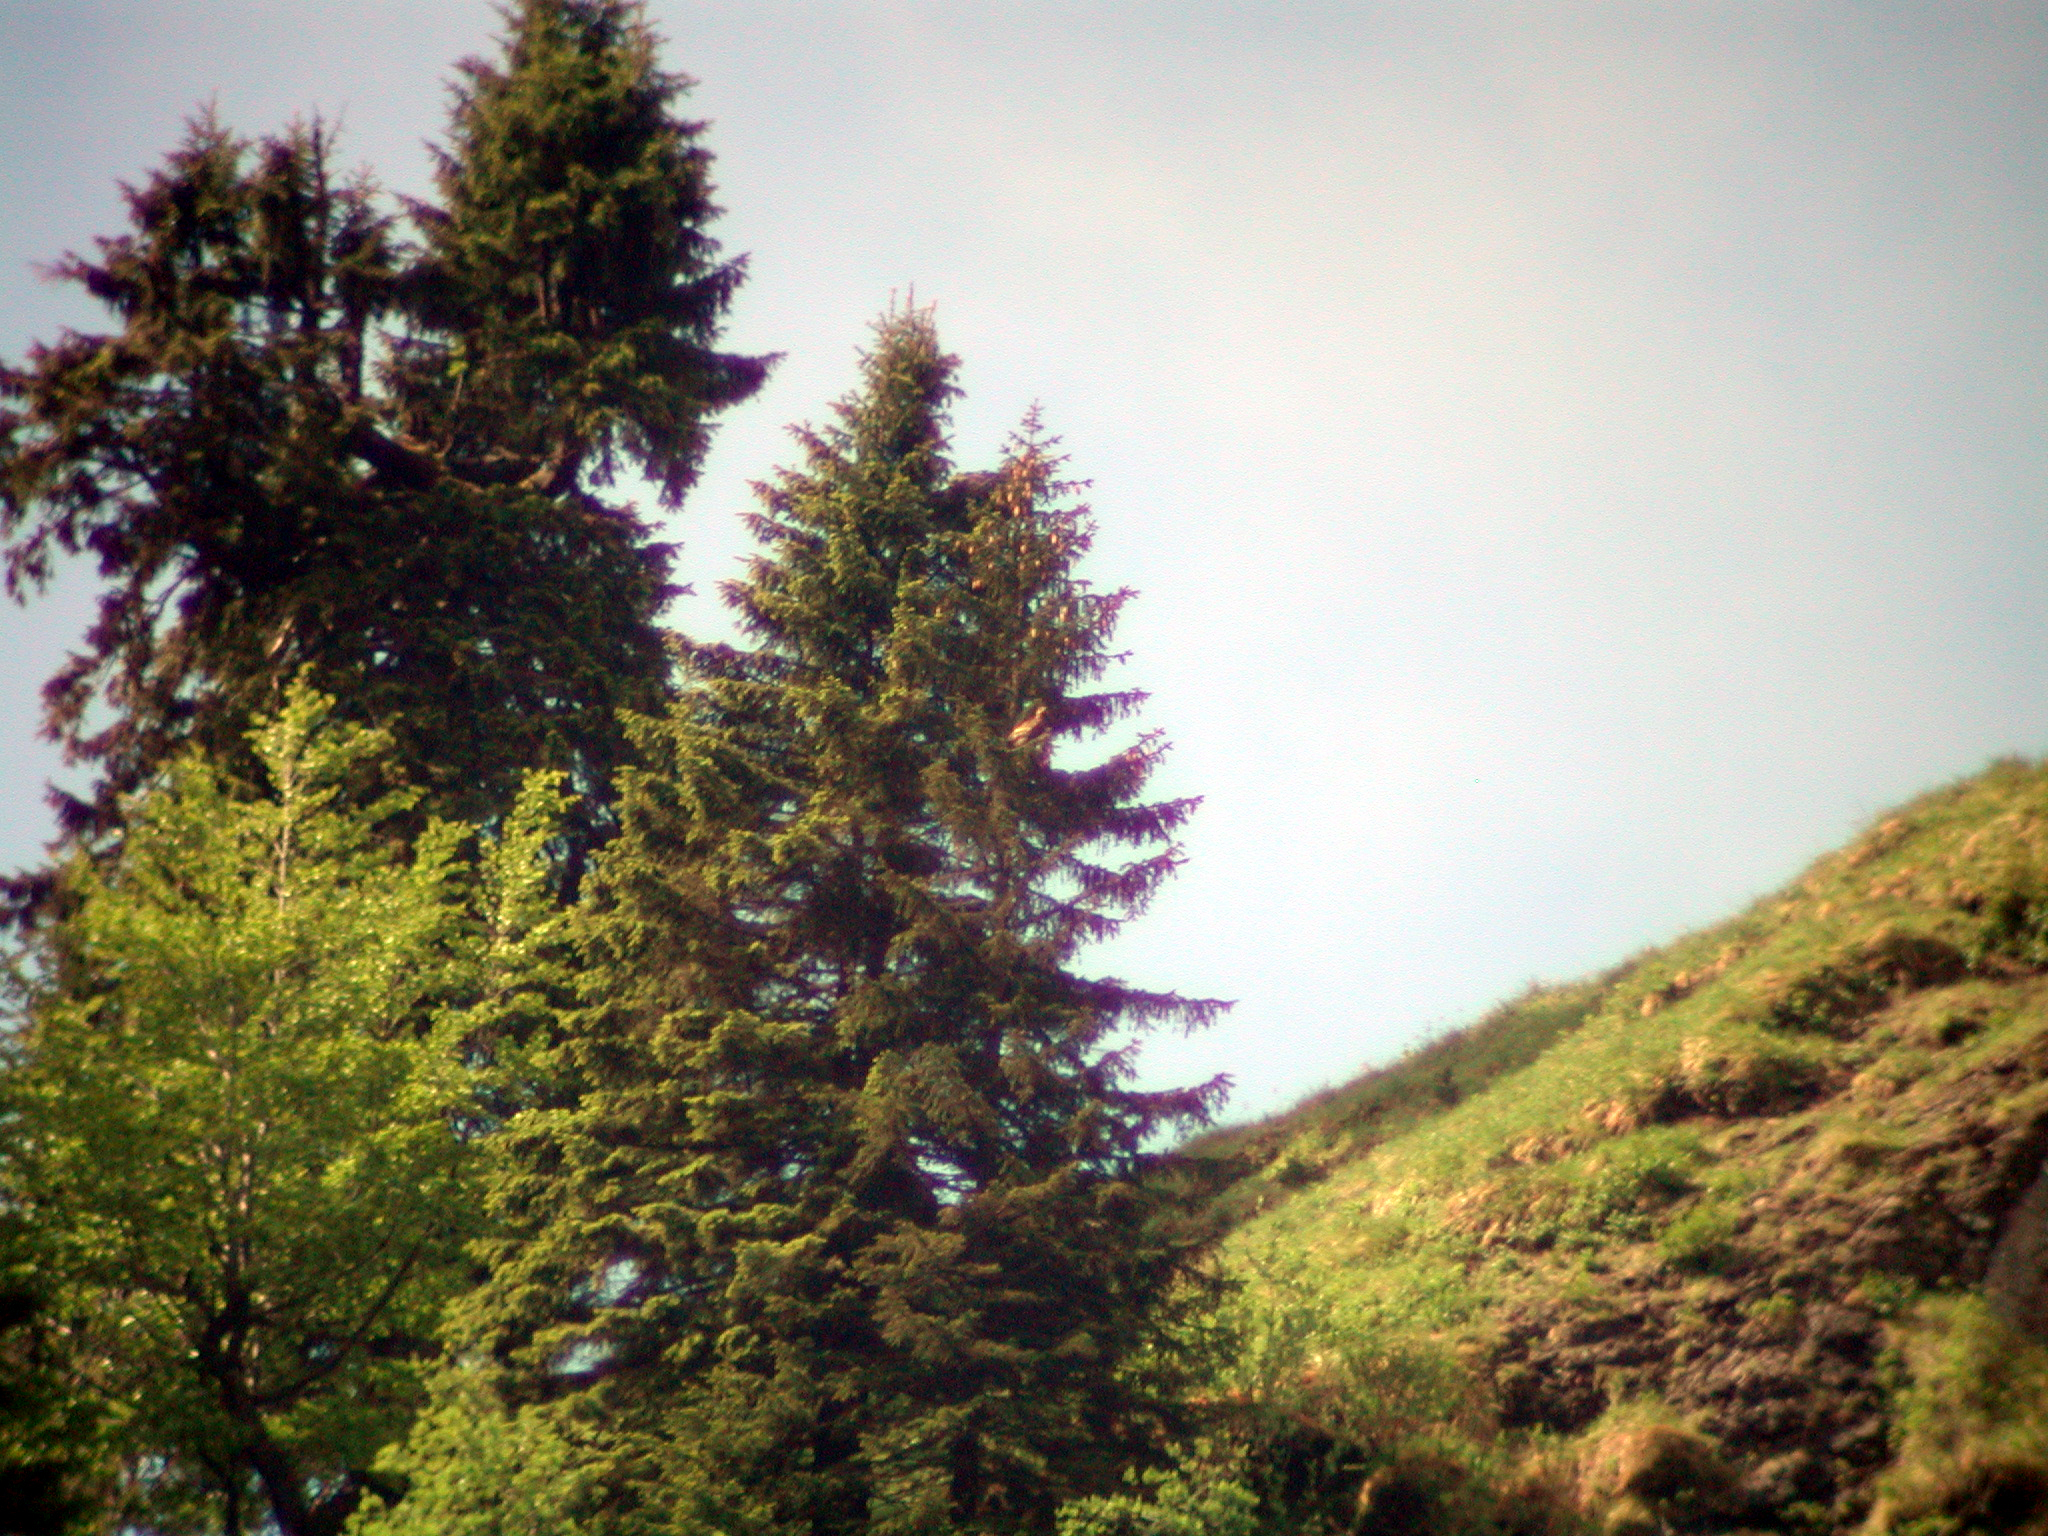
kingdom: Animalia
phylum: Chordata
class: Aves
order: Accipitriformes
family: Accipitridae
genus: Aquila
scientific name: Aquila chrysaetos
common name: Golden eagle
